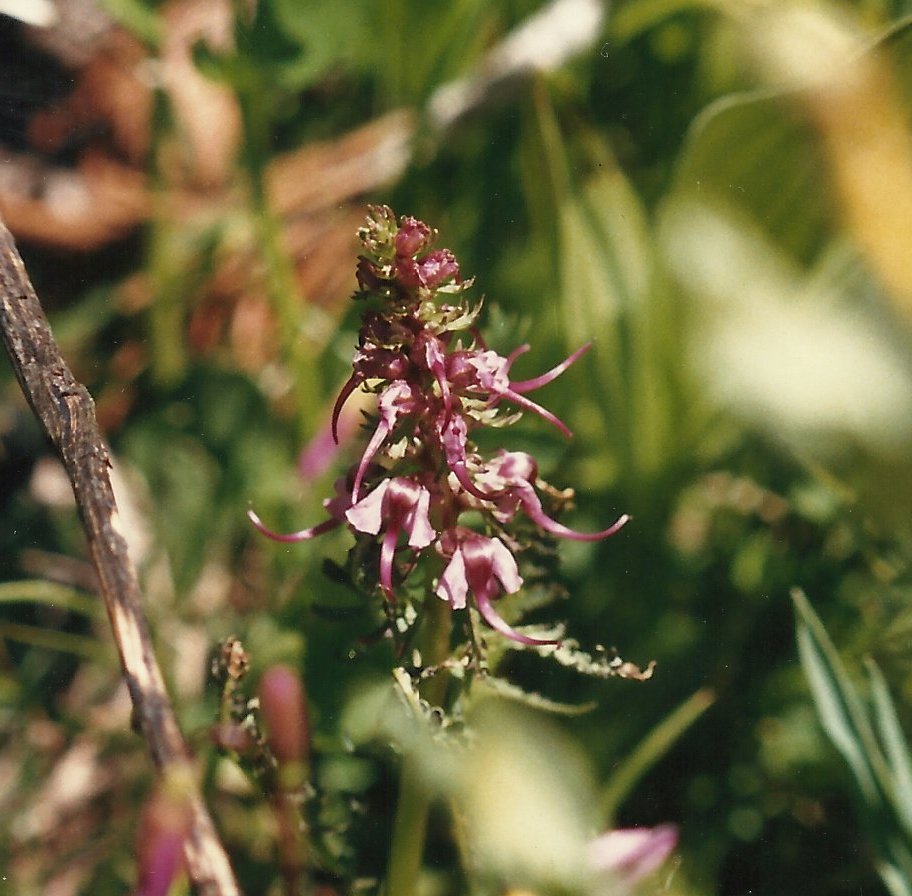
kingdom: Plantae
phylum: Tracheophyta
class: Magnoliopsida
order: Lamiales
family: Orobanchaceae
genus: Pedicularis
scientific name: Pedicularis groenlandica
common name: Elephant's-head
